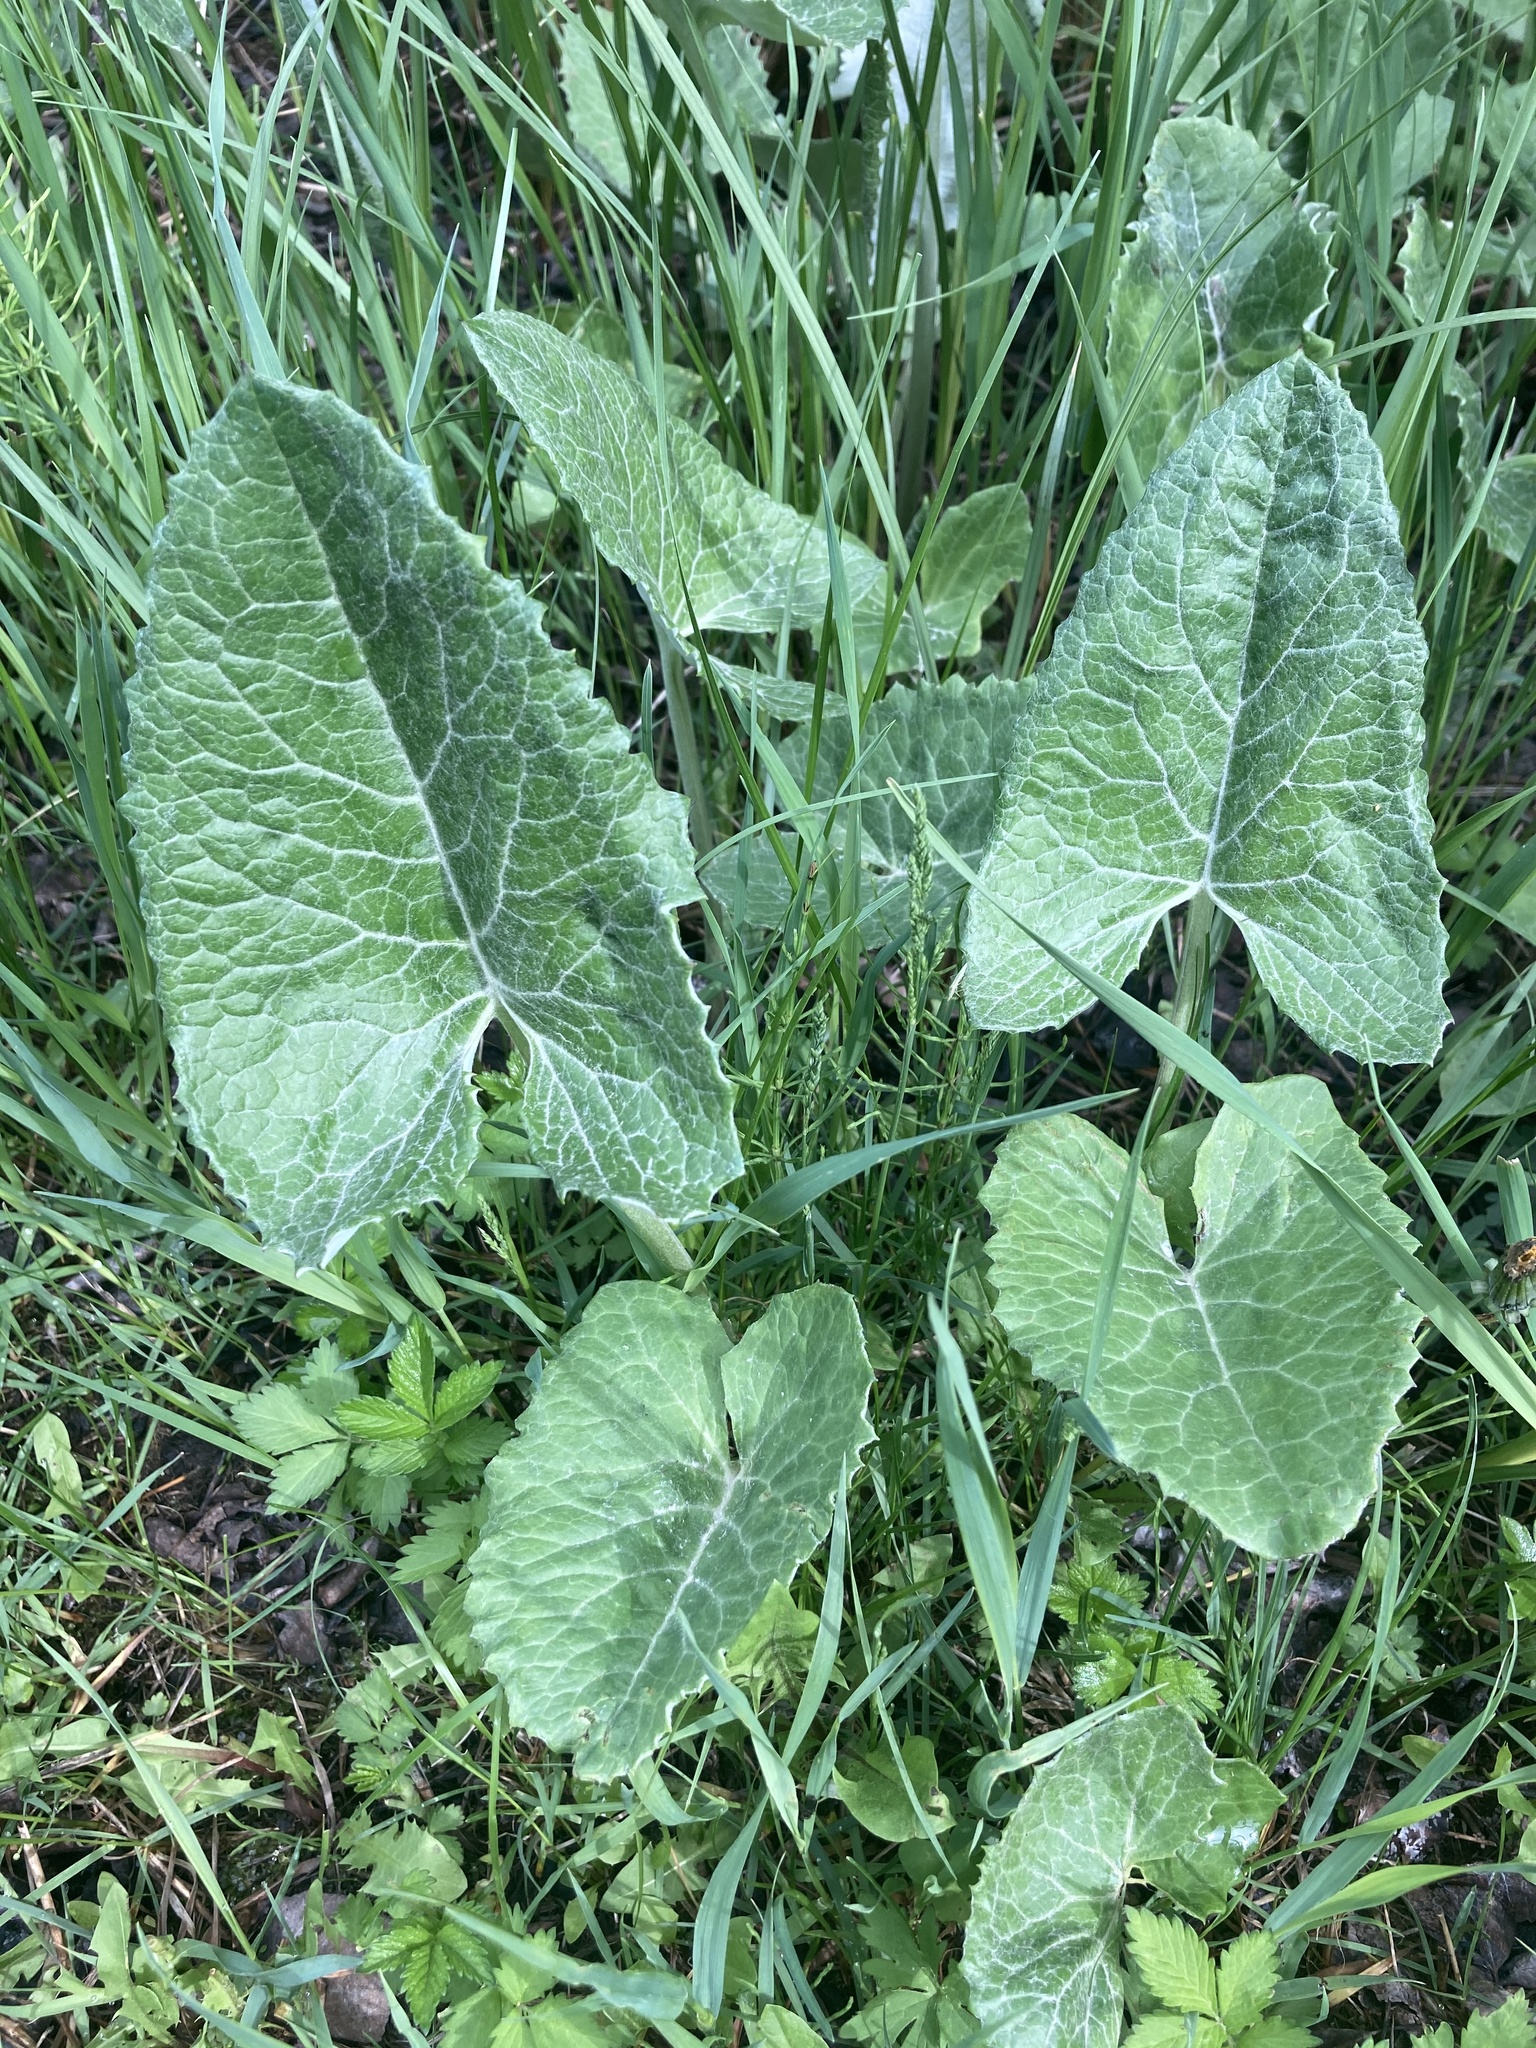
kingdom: Plantae
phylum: Tracheophyta
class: Magnoliopsida
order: Asterales
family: Asteraceae
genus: Petasites
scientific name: Petasites frigidus
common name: Arctic butterbur
